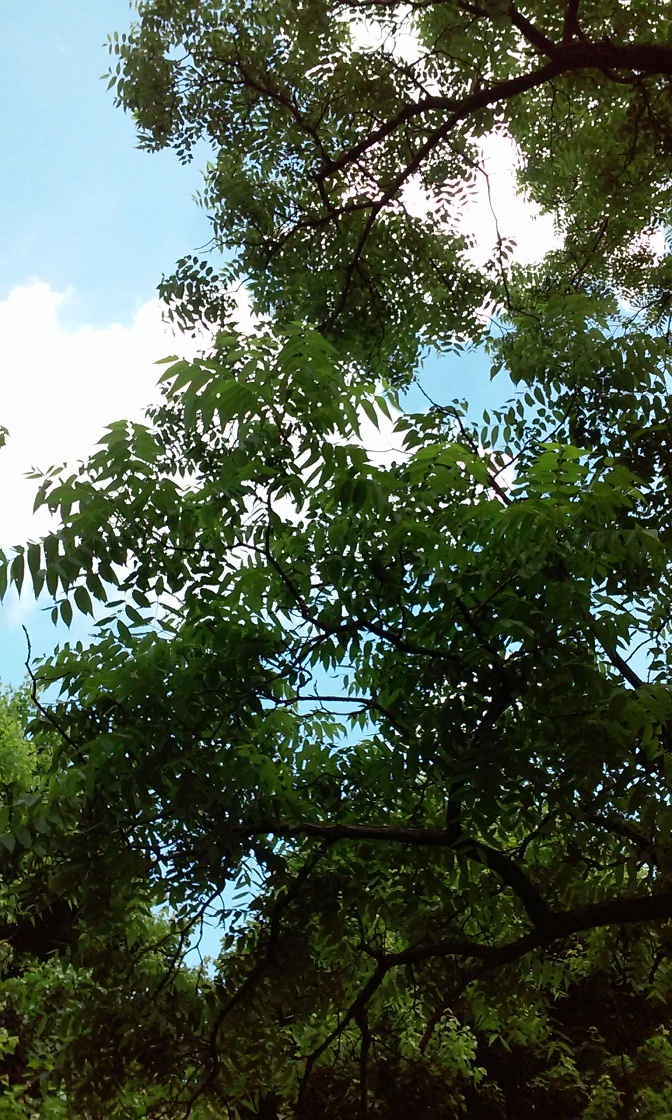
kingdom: Plantae
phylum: Tracheophyta
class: Magnoliopsida
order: Fagales
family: Juglandaceae
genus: Juglans
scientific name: Juglans nigra
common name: Black walnut
